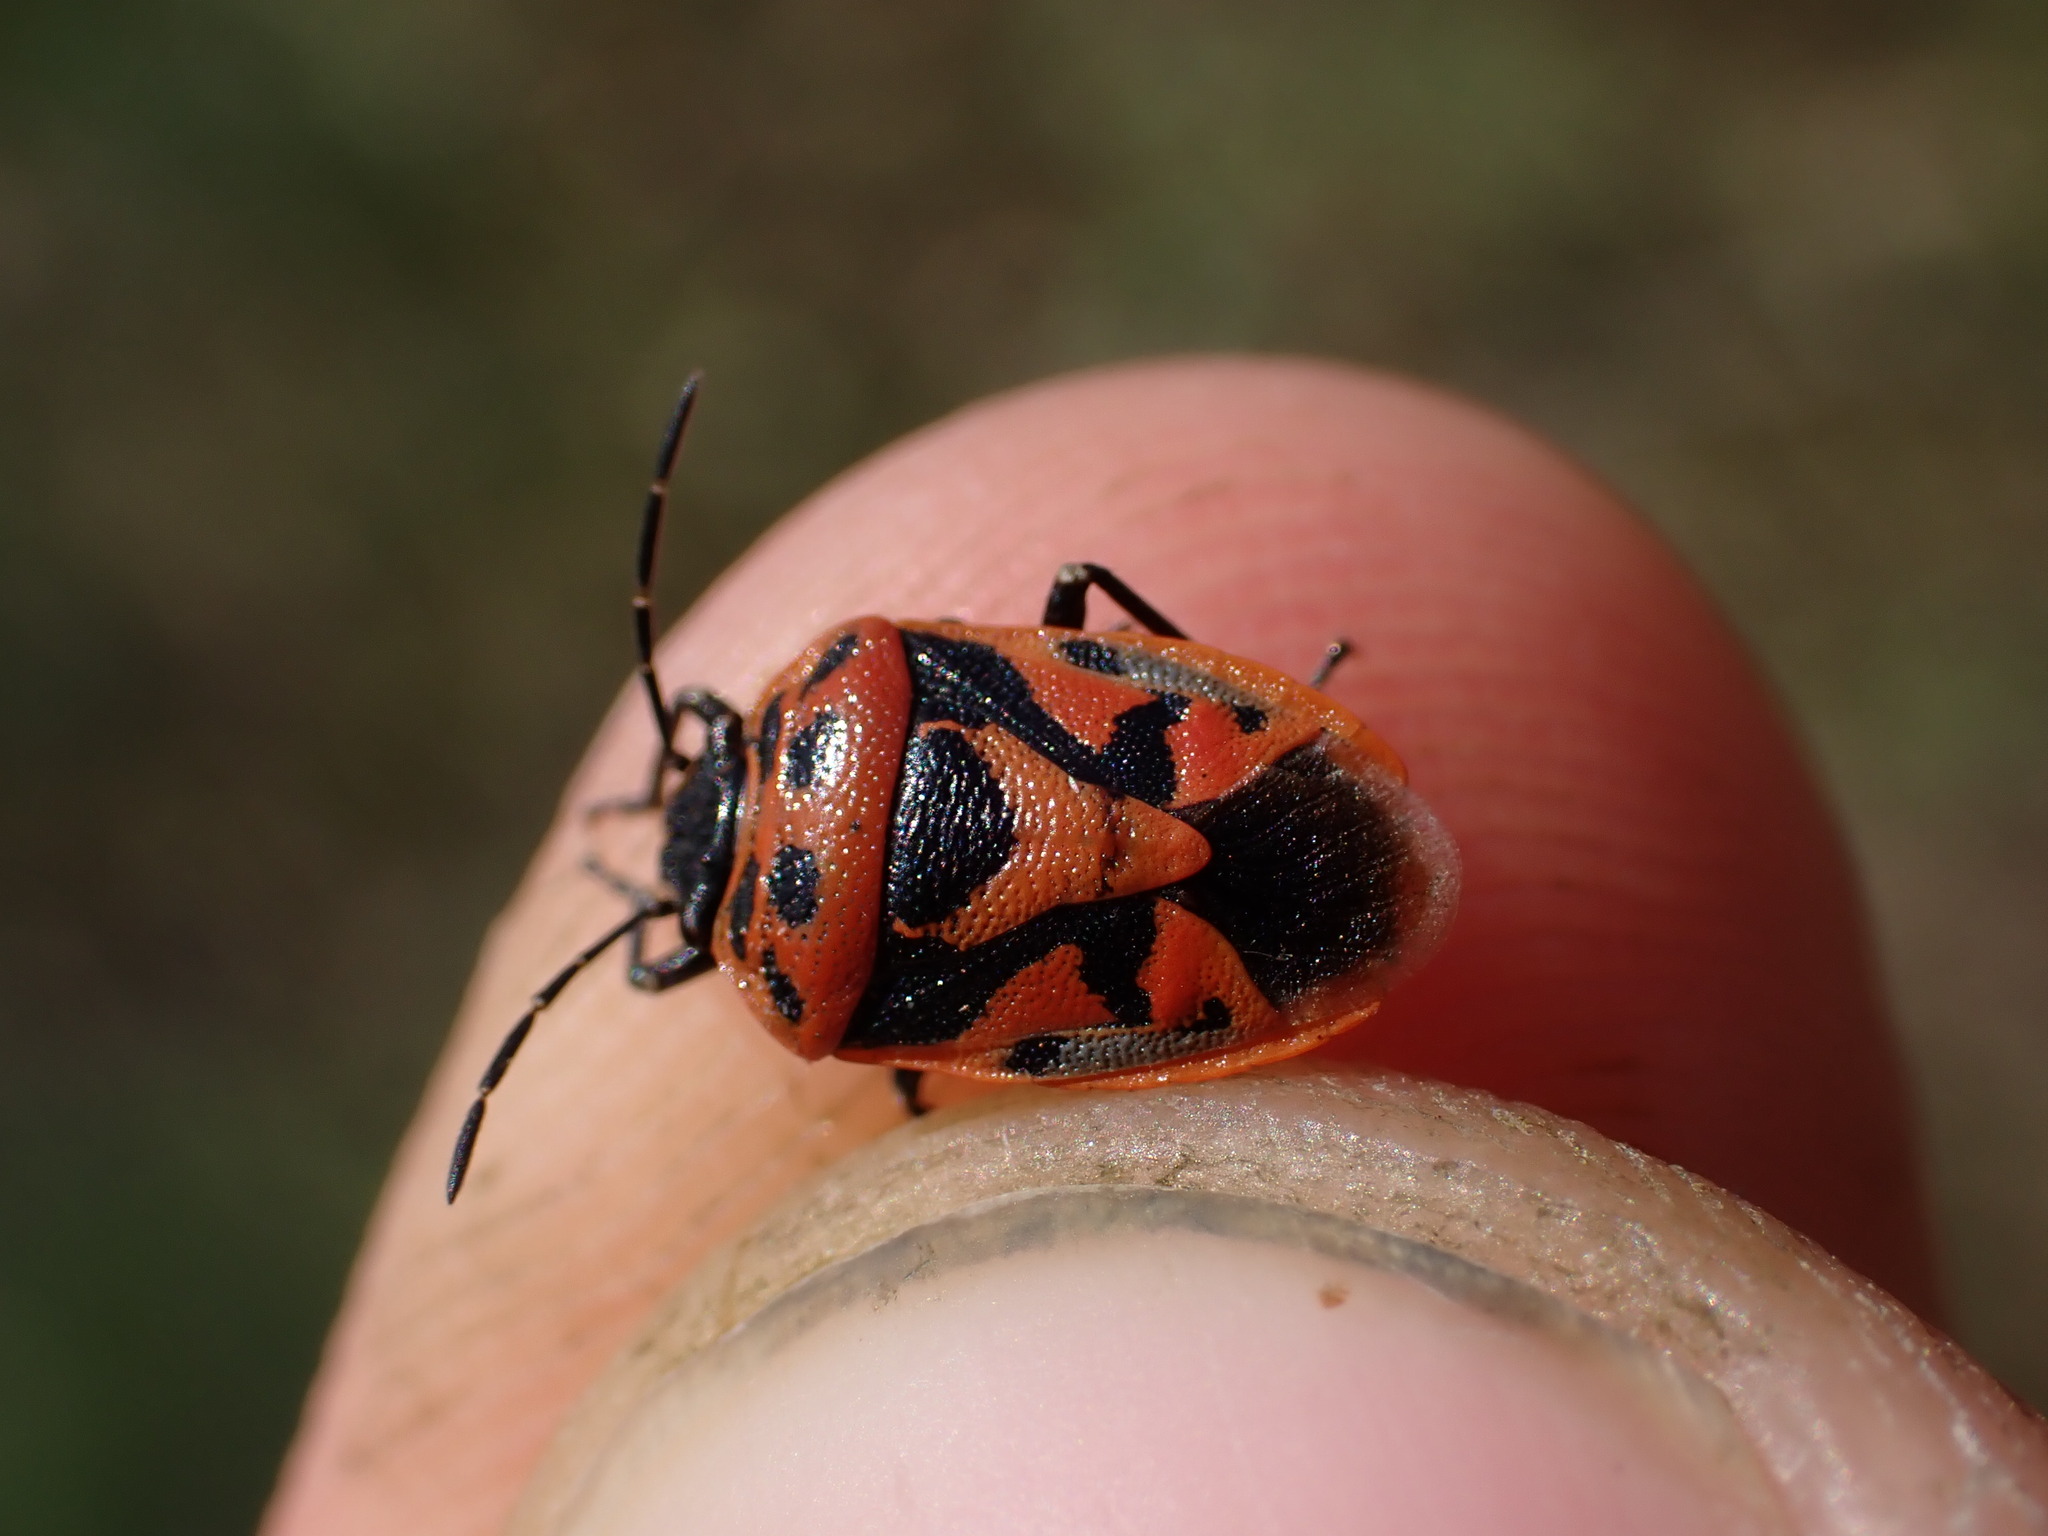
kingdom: Animalia
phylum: Arthropoda
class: Insecta
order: Hemiptera
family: Pentatomidae
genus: Eurydema
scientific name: Eurydema ornata
